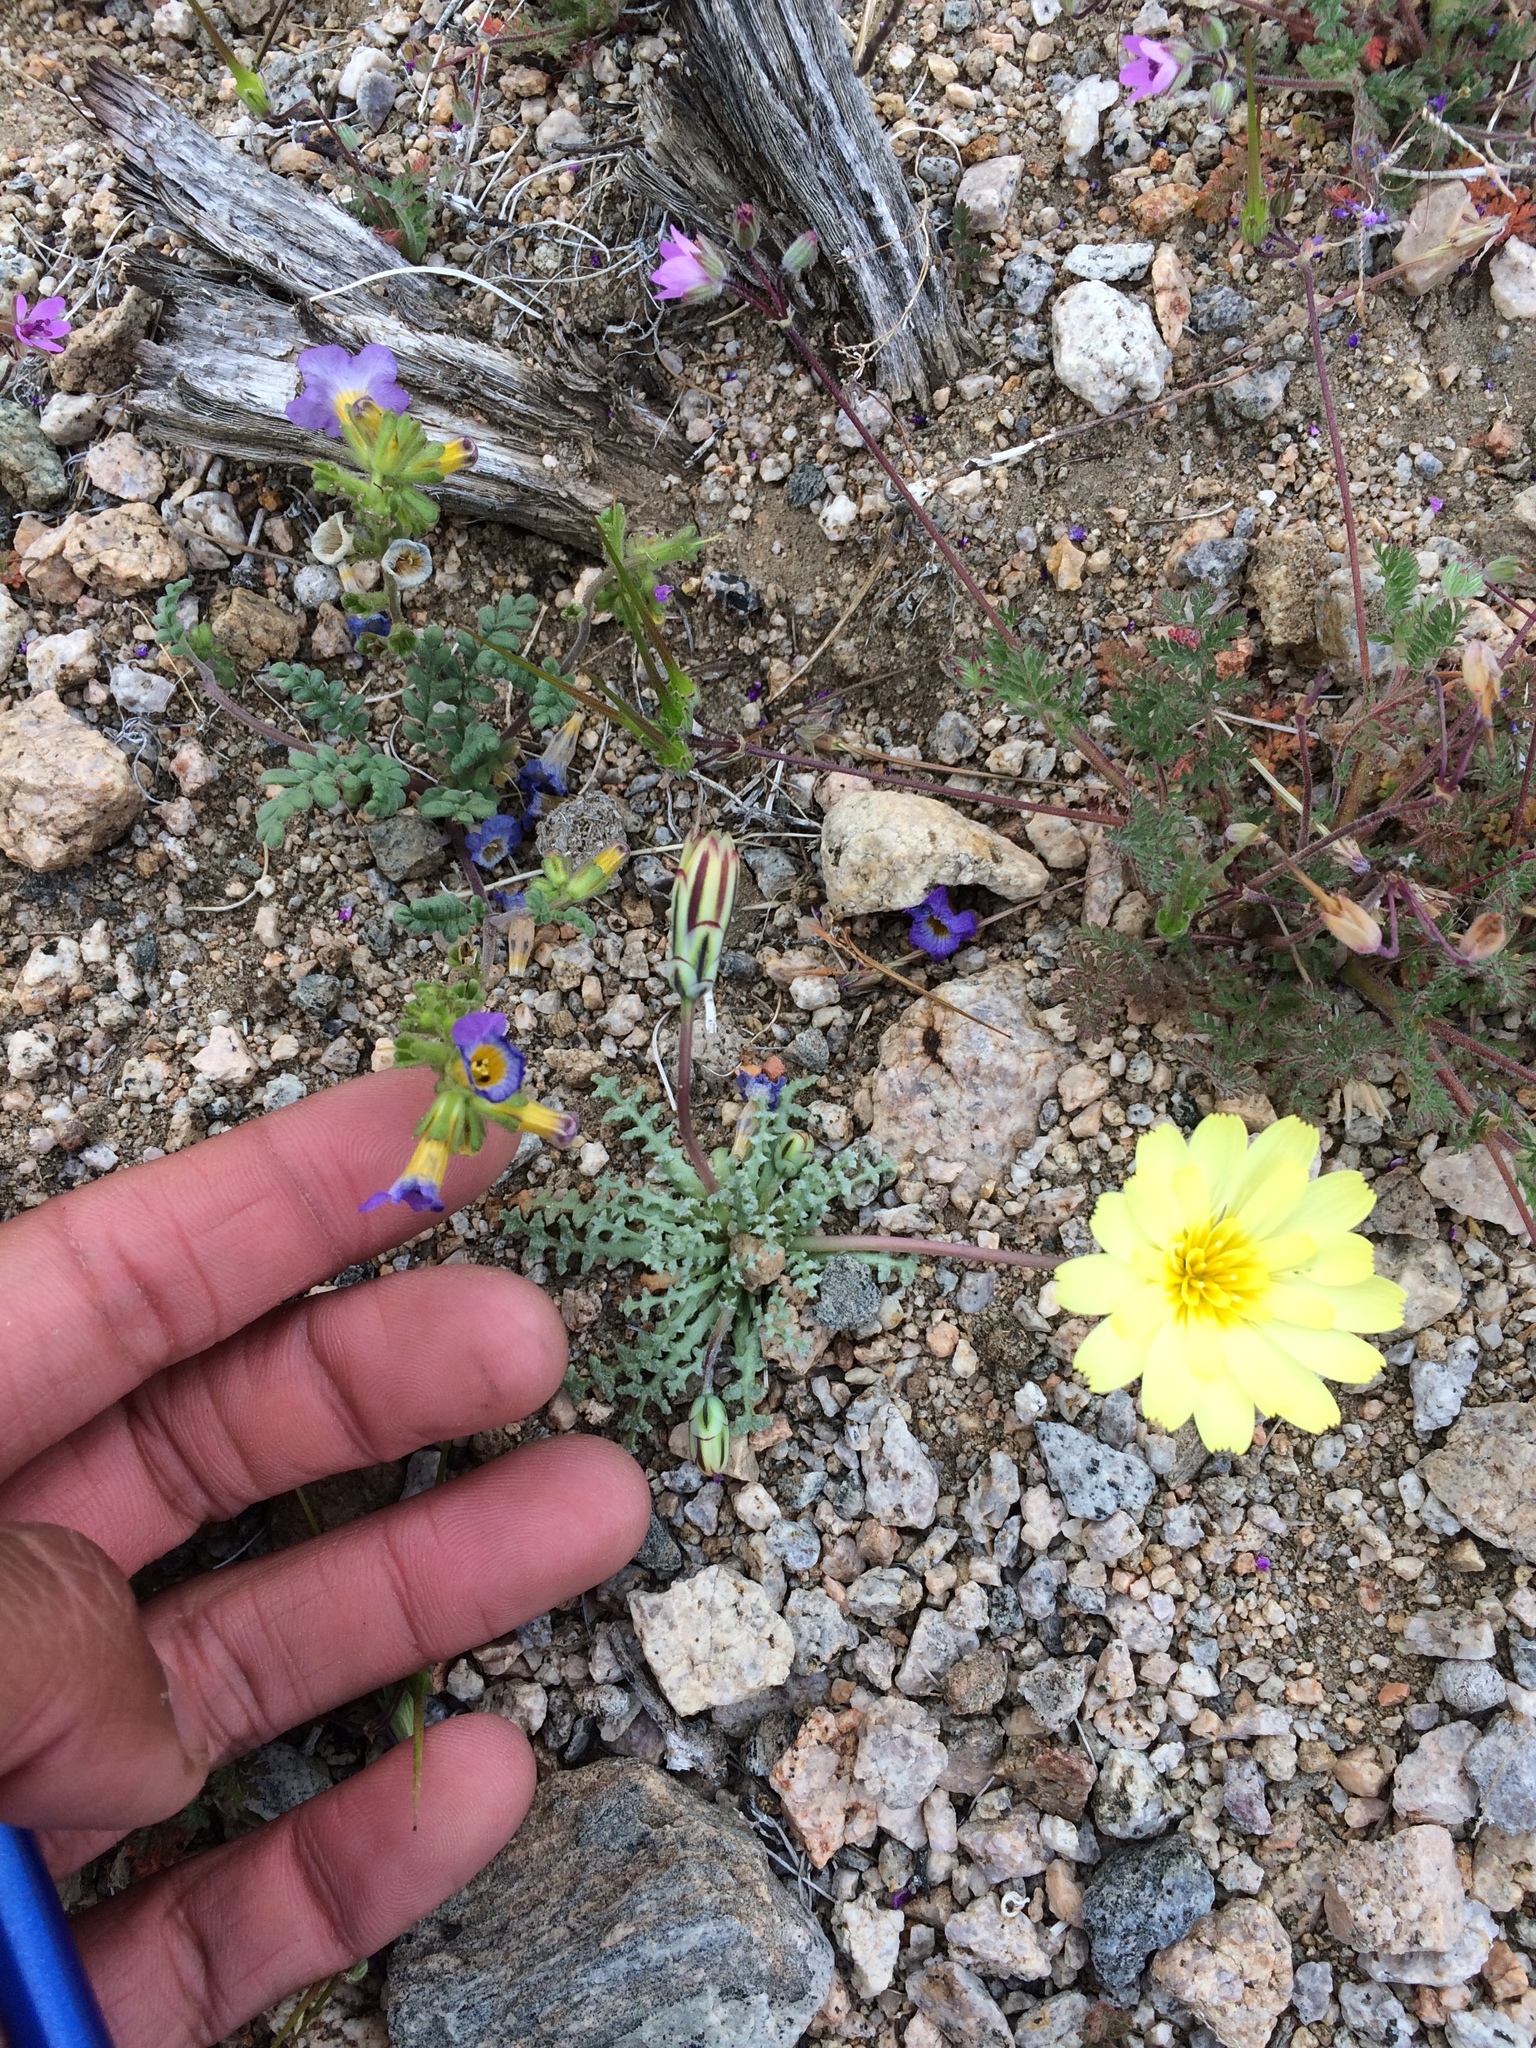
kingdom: Plantae
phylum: Tracheophyta
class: Magnoliopsida
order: Asterales
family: Asteraceae
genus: Anisocoma
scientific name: Anisocoma acaulis
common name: Scalebud
